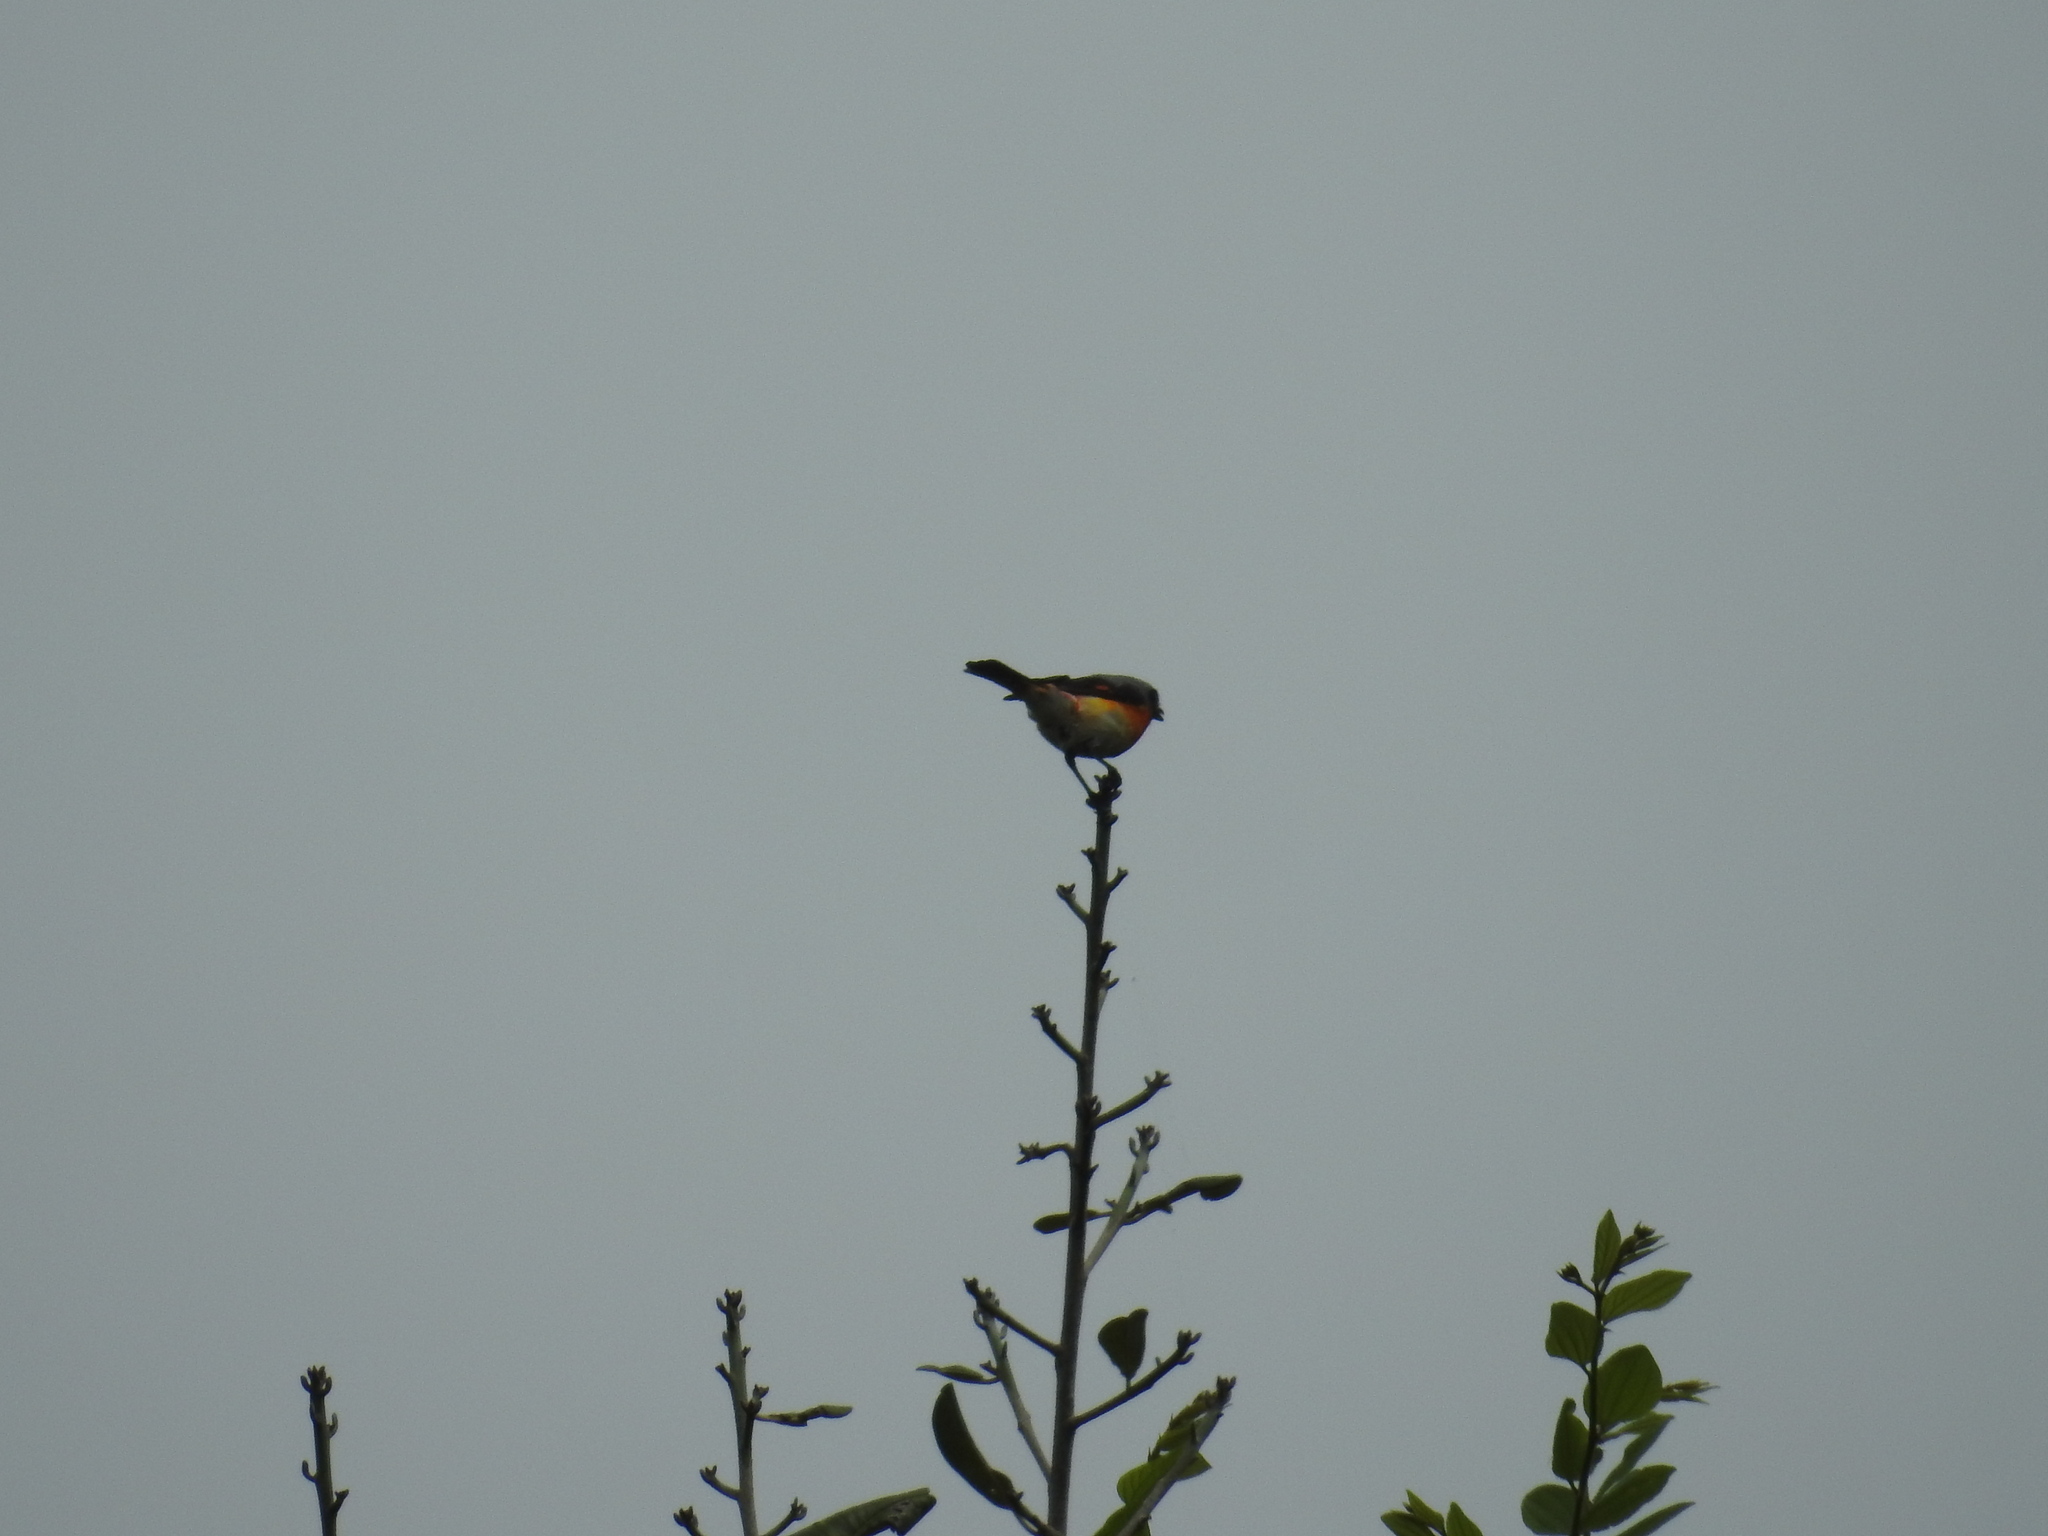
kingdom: Animalia
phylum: Chordata
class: Aves
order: Passeriformes
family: Campephagidae
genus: Pericrocotus
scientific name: Pericrocotus cinnamomeus
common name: Small minivet
